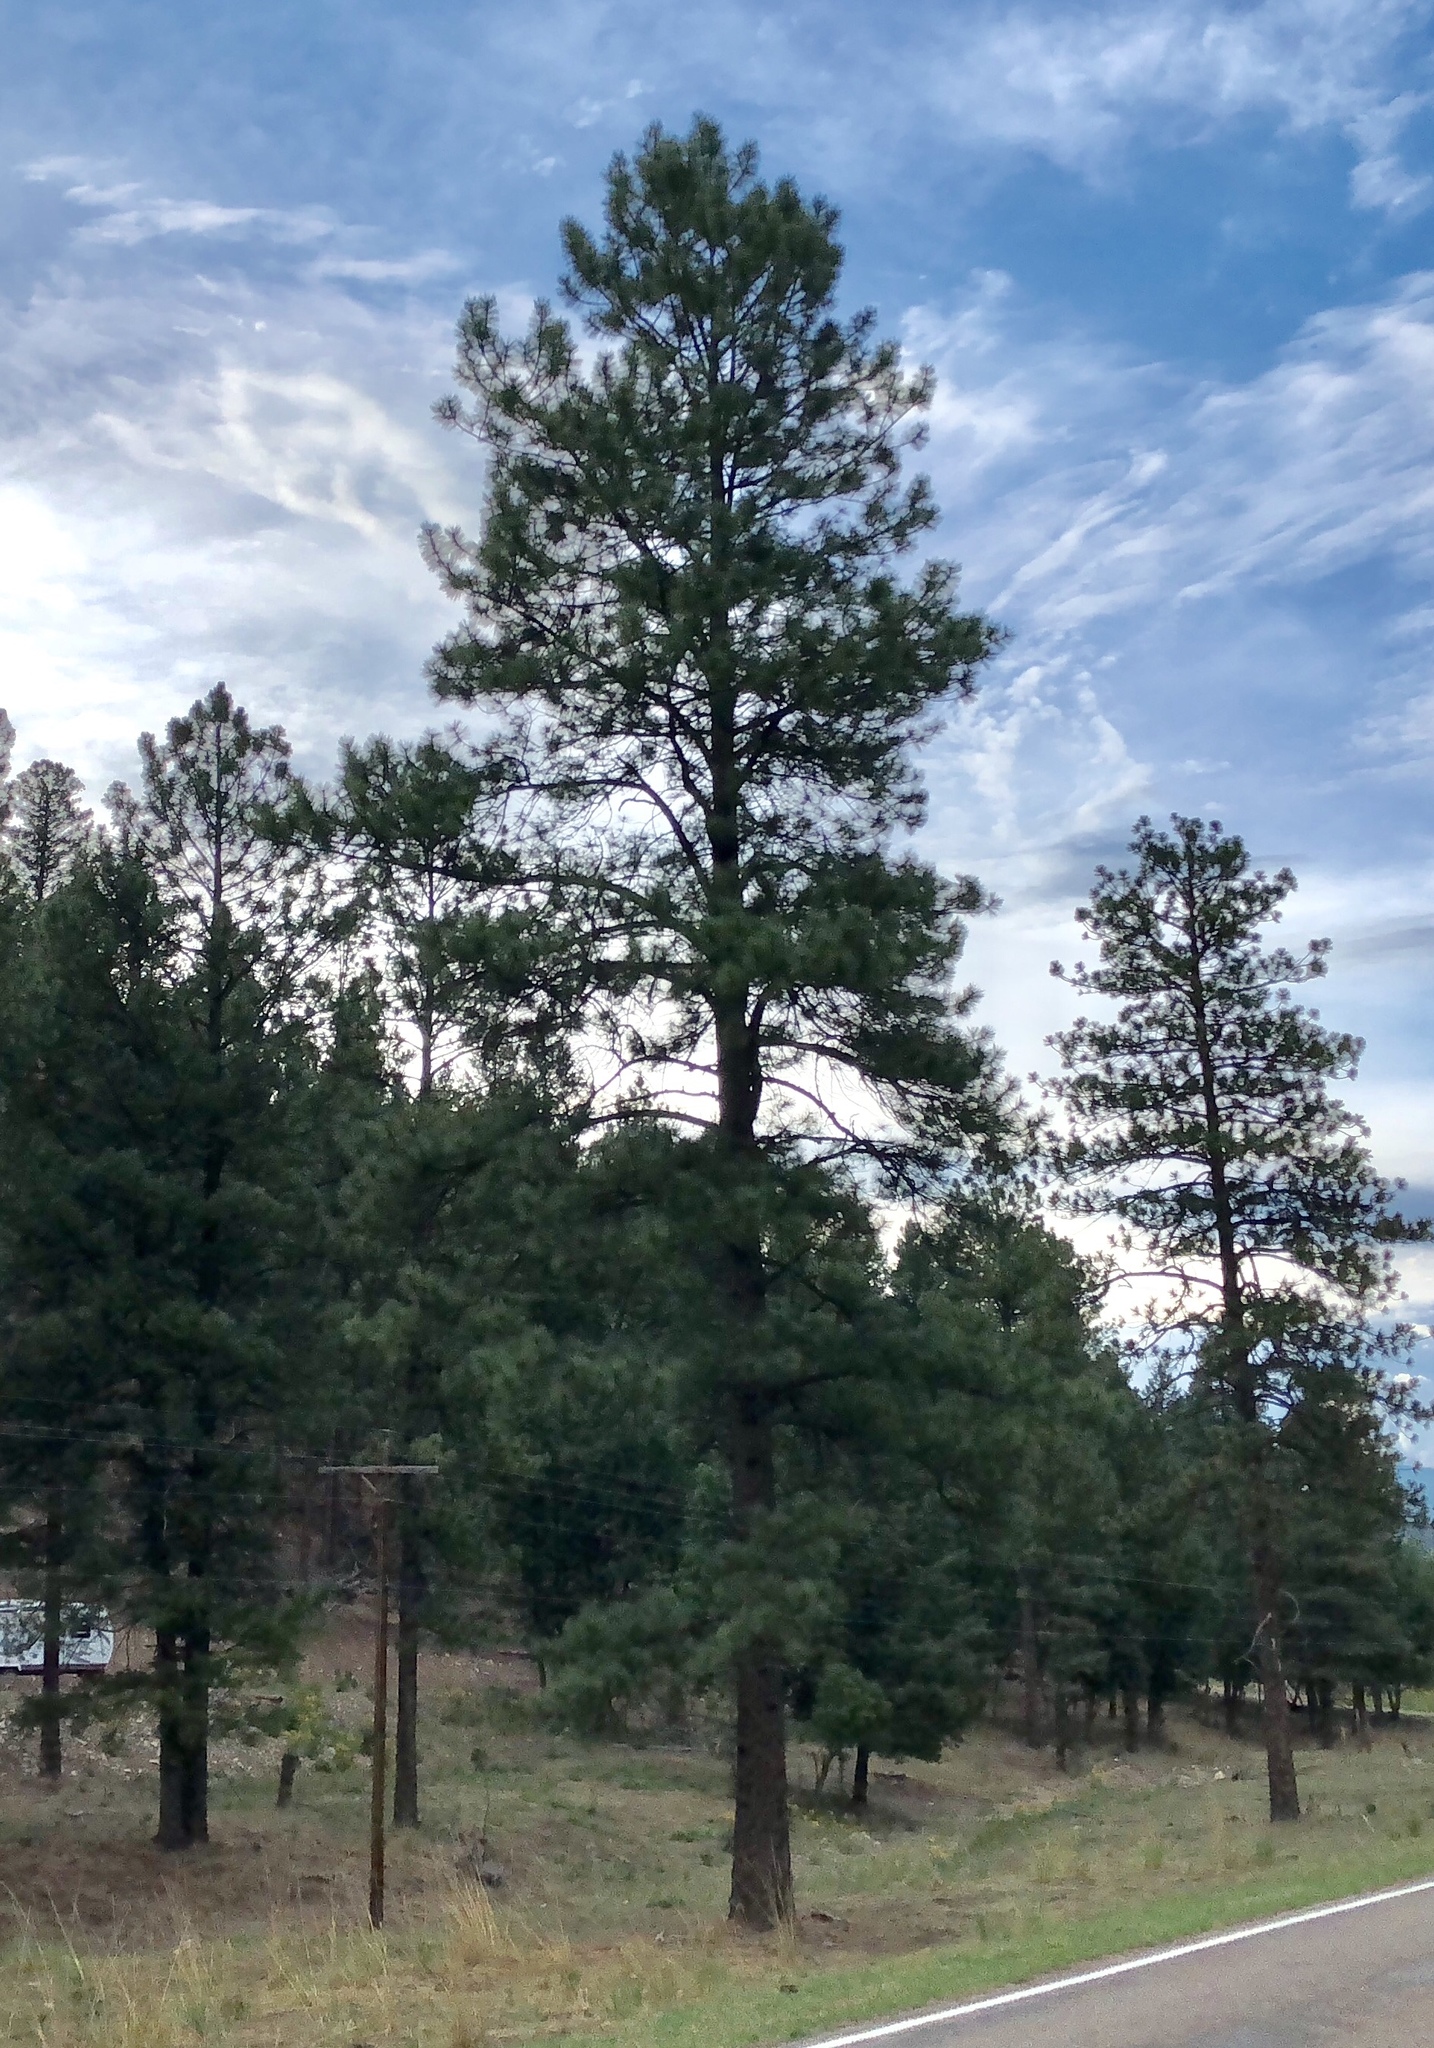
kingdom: Plantae
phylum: Tracheophyta
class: Pinopsida
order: Pinales
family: Pinaceae
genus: Pinus
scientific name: Pinus ponderosa
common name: Western yellow-pine
